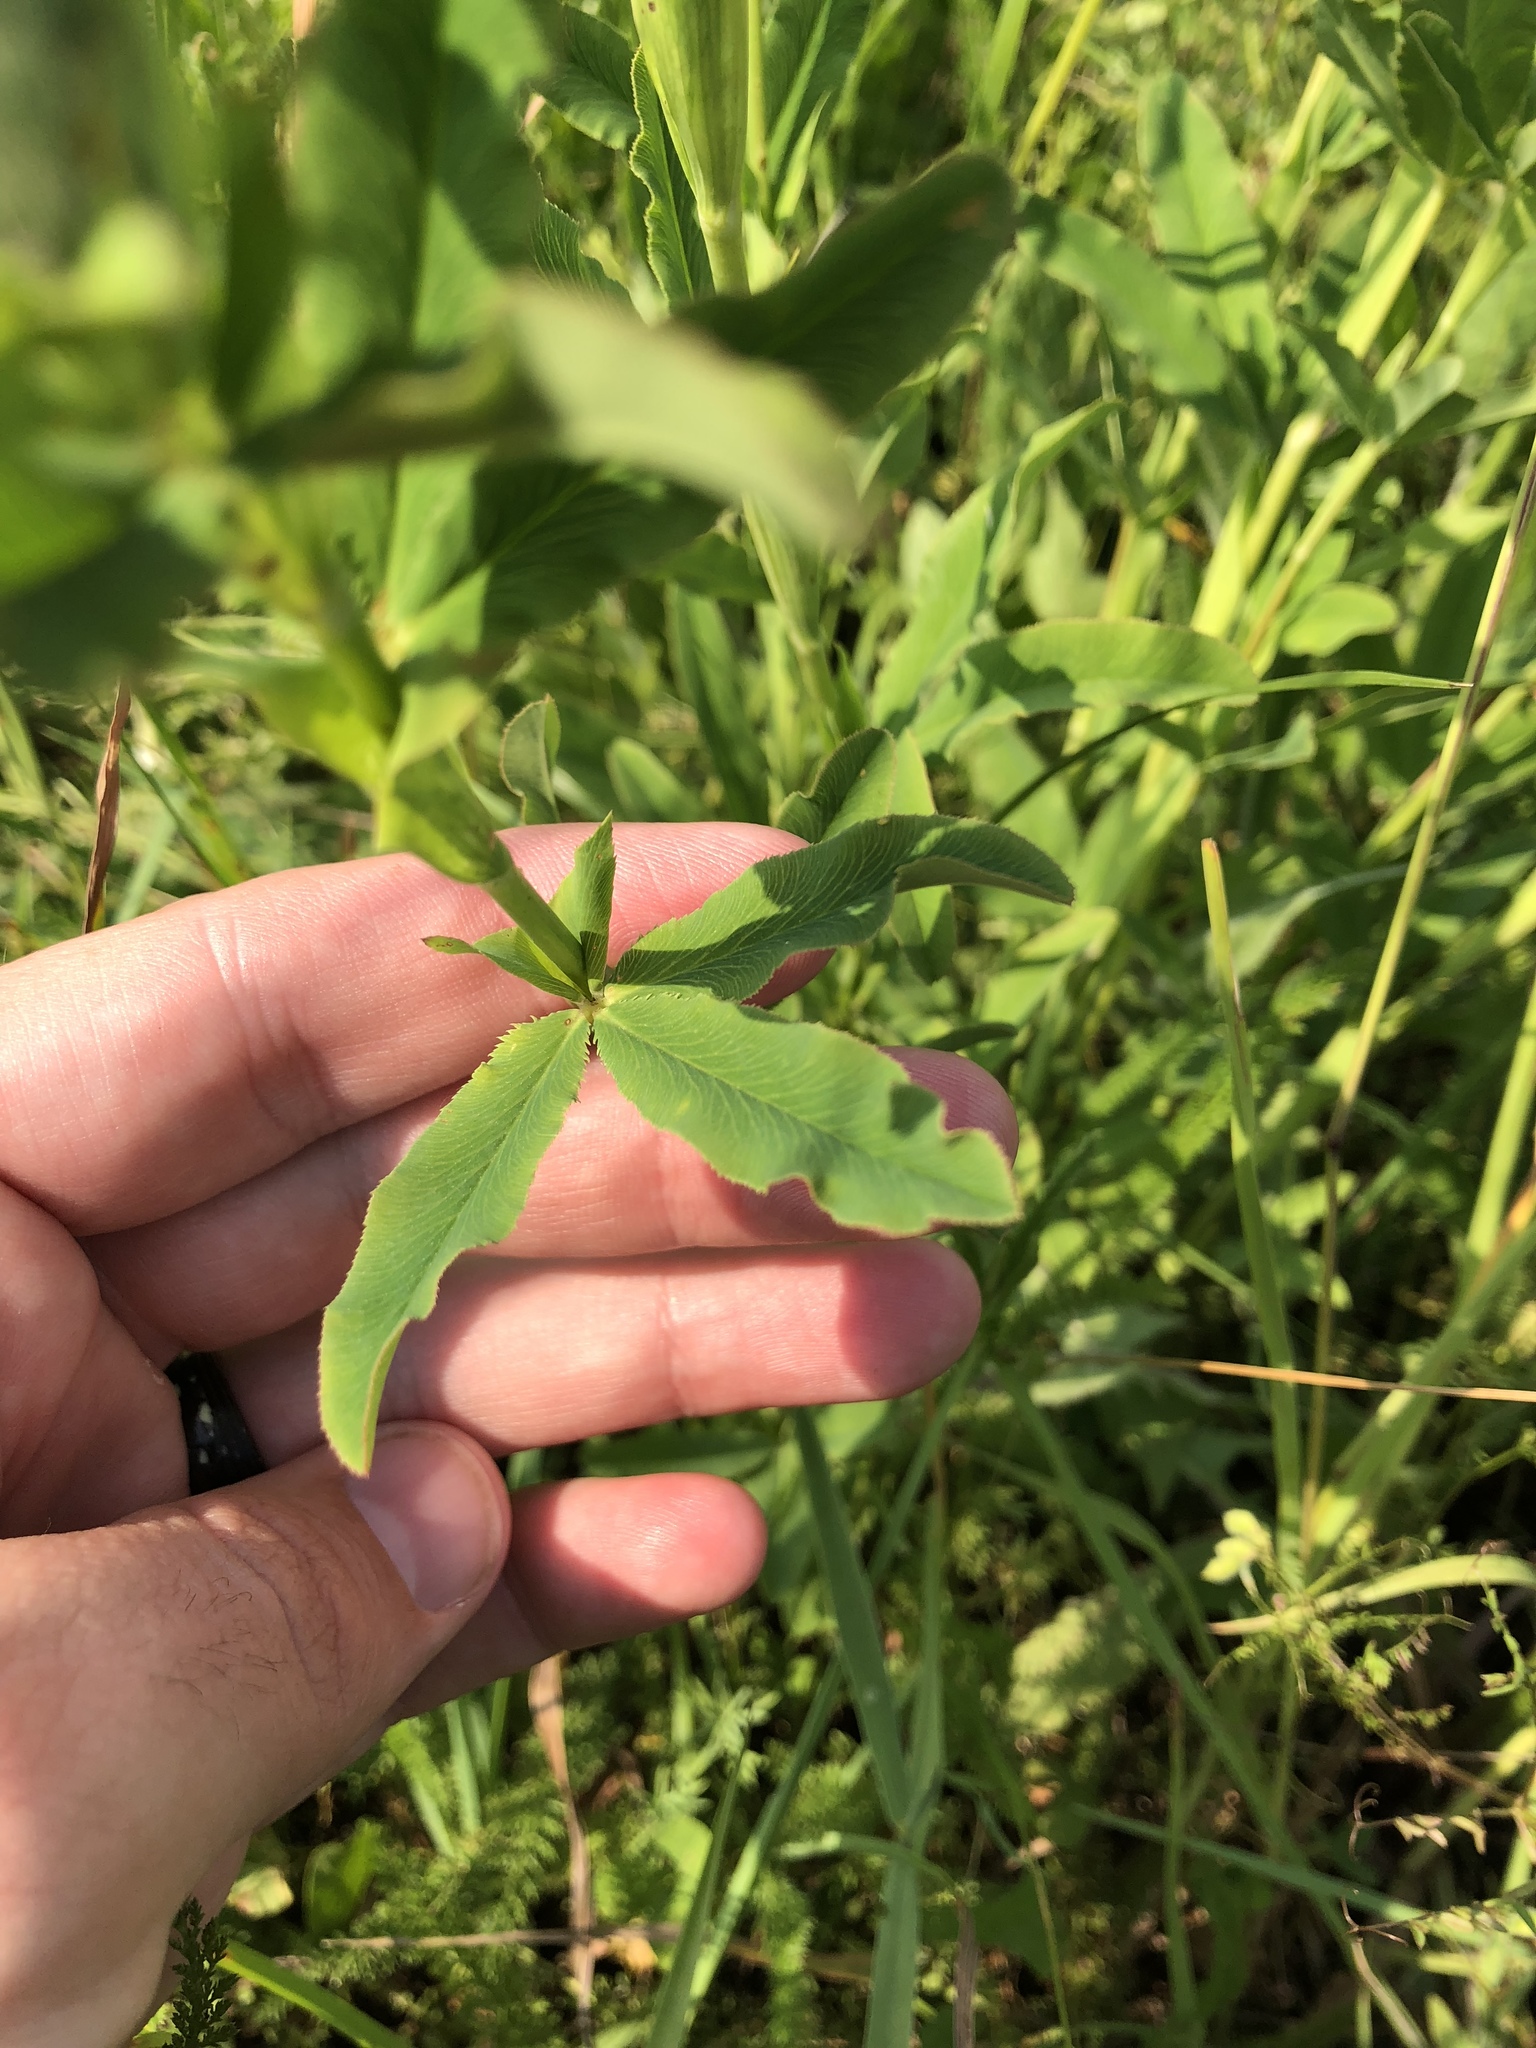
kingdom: Plantae
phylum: Tracheophyta
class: Magnoliopsida
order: Fabales
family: Fabaceae
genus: Trifolium
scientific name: Trifolium rubens
